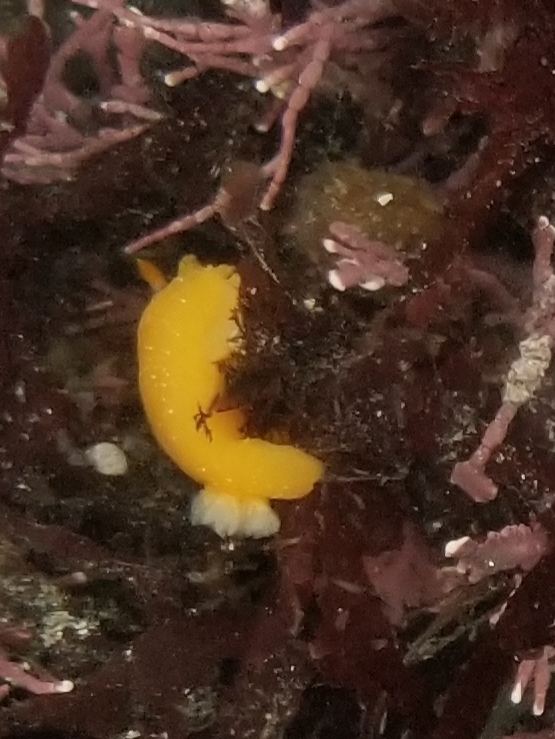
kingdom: Animalia
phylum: Mollusca
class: Gastropoda
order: Nudibranchia
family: Dendrodorididae
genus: Doriopsilla
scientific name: Doriopsilla fulva
